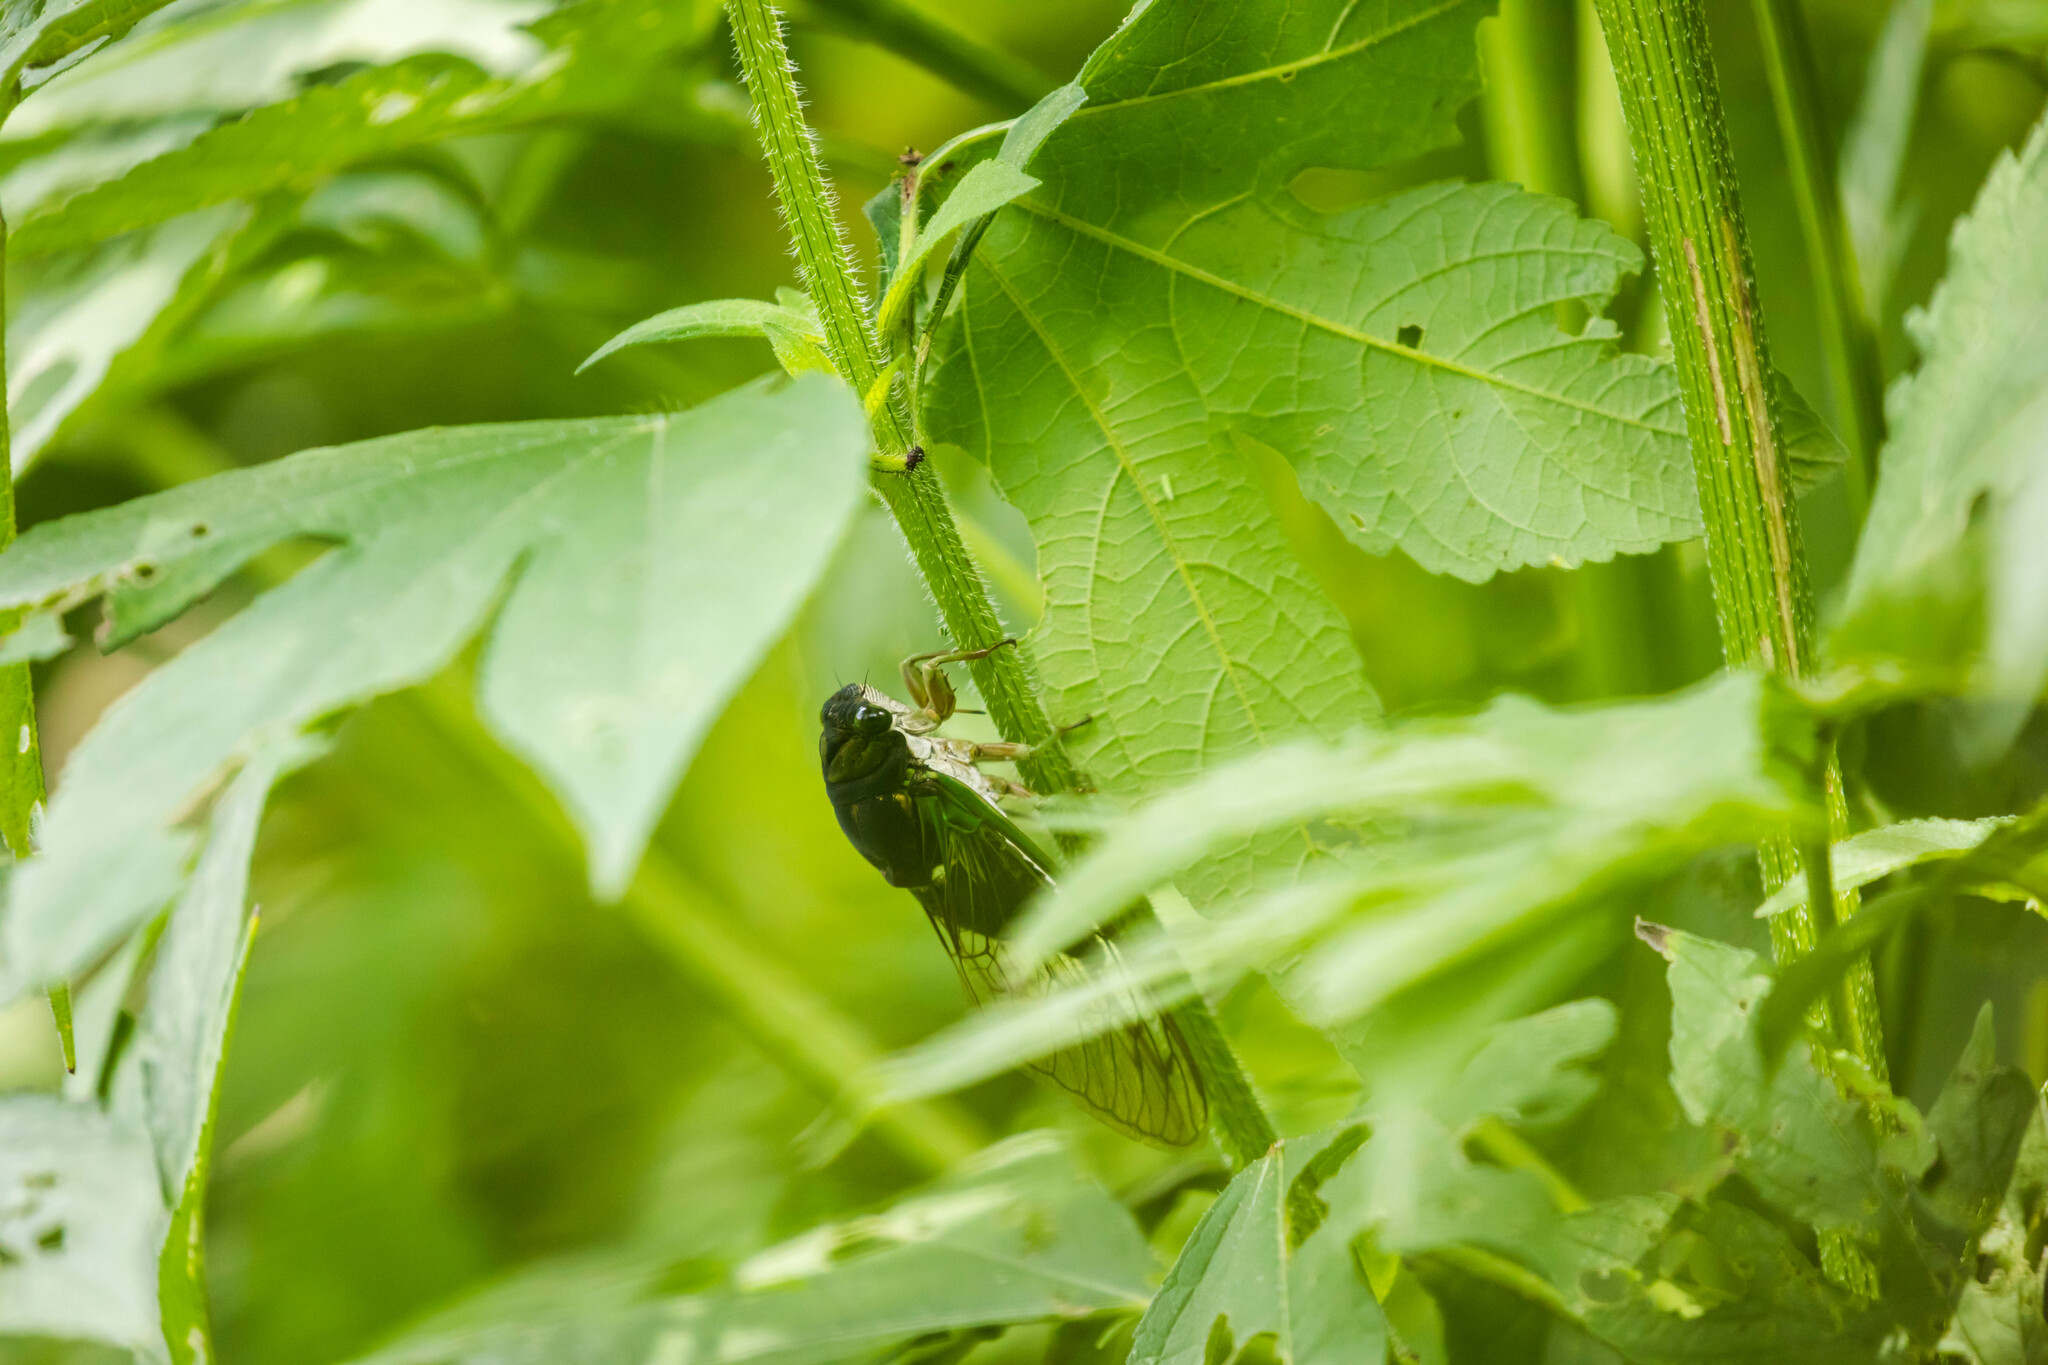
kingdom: Animalia
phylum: Arthropoda
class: Insecta
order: Hemiptera
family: Cicadidae
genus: Neotibicen
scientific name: Neotibicen tibicen
